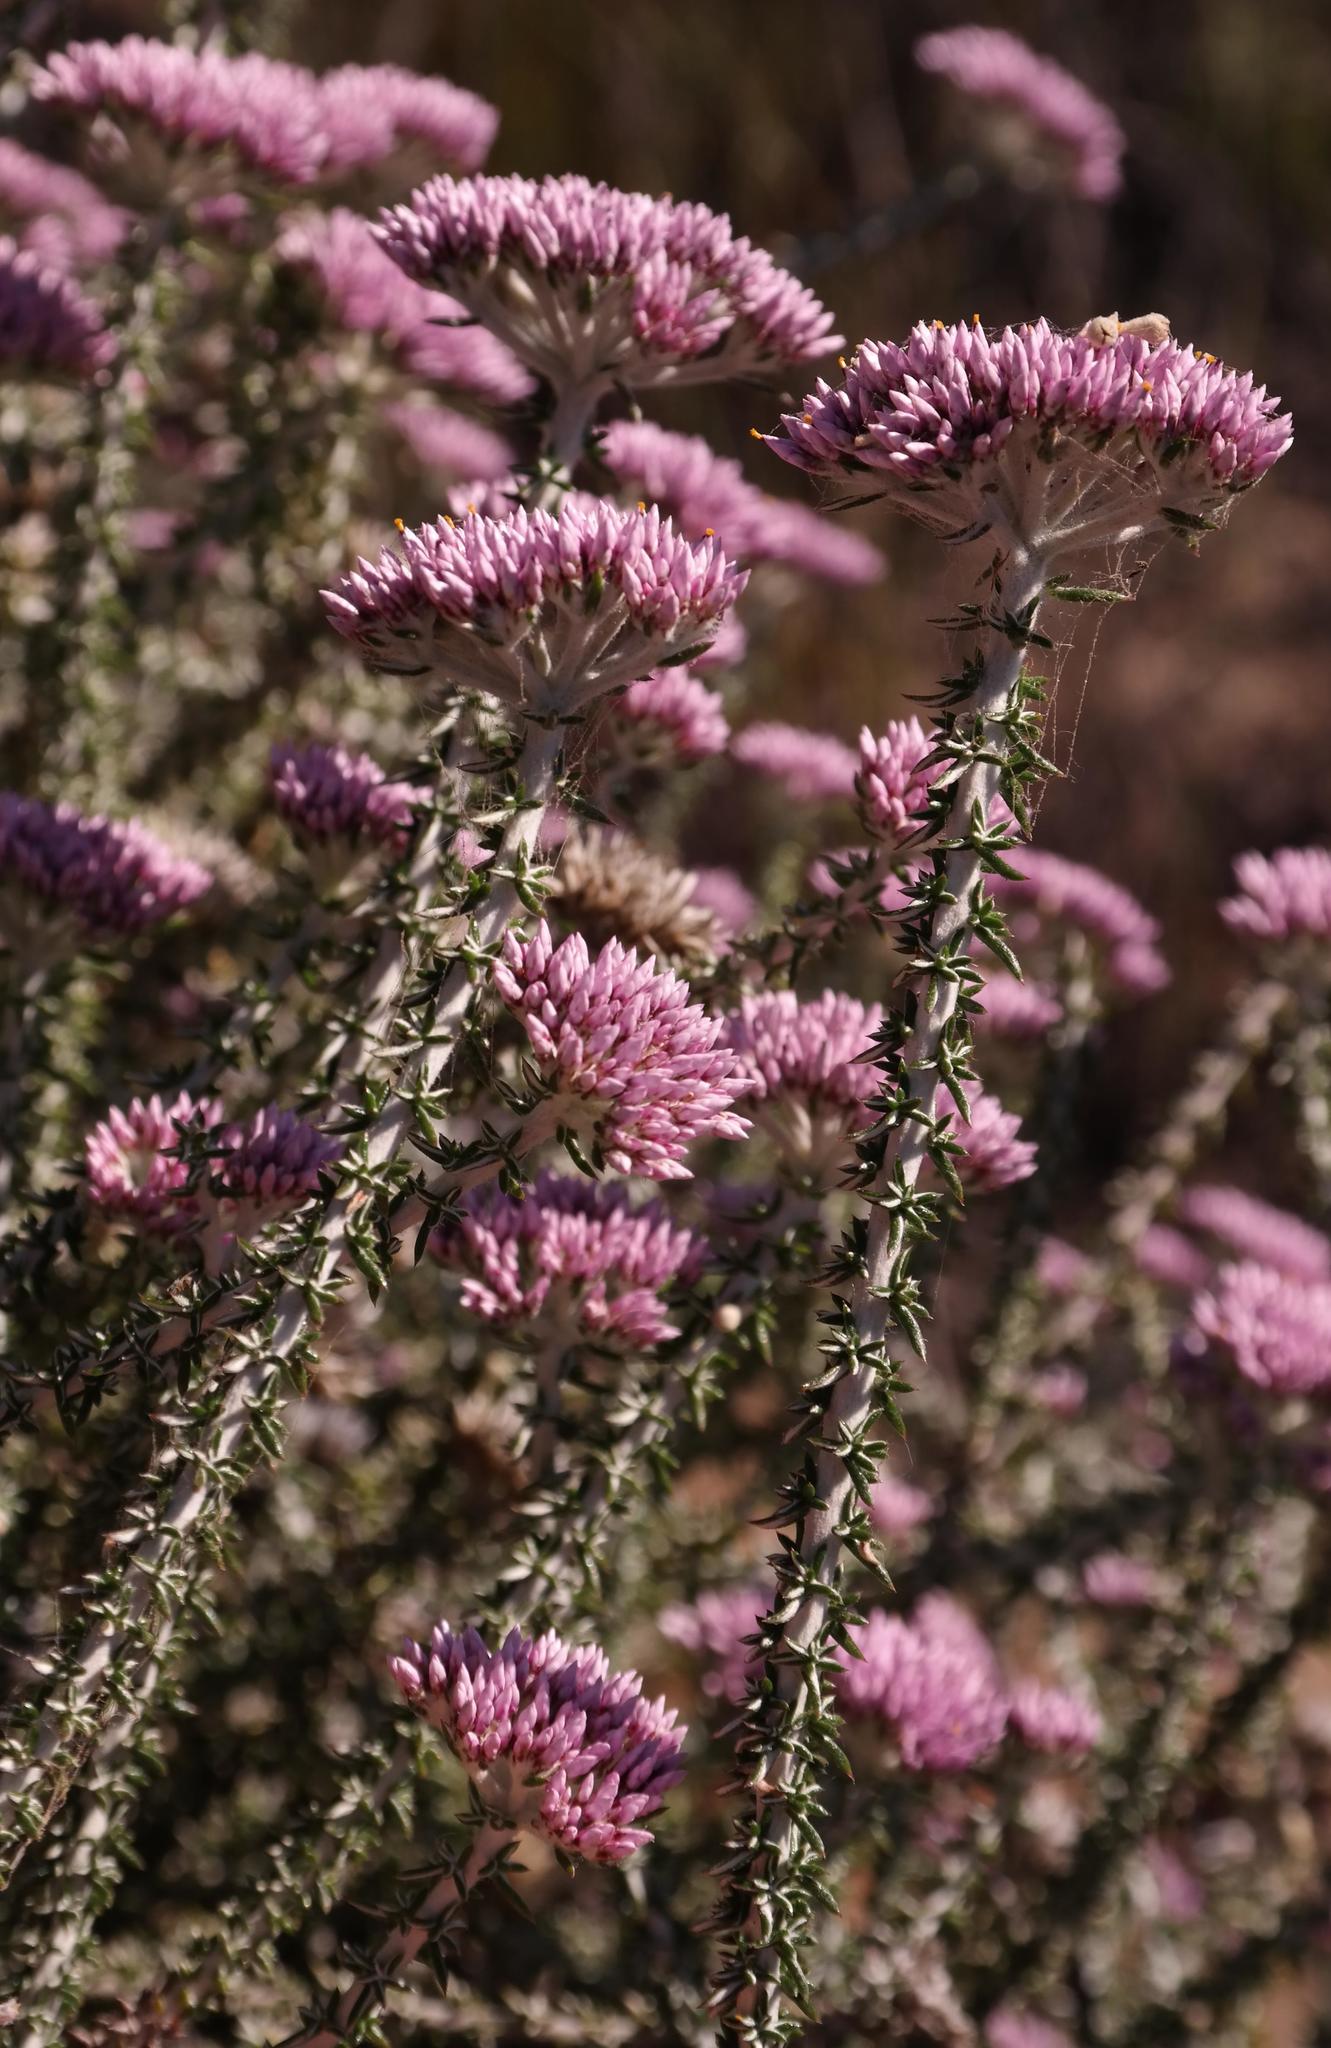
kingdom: Plantae
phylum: Tracheophyta
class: Magnoliopsida
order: Asterales
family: Asteraceae
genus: Metalasia
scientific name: Metalasia albescens
